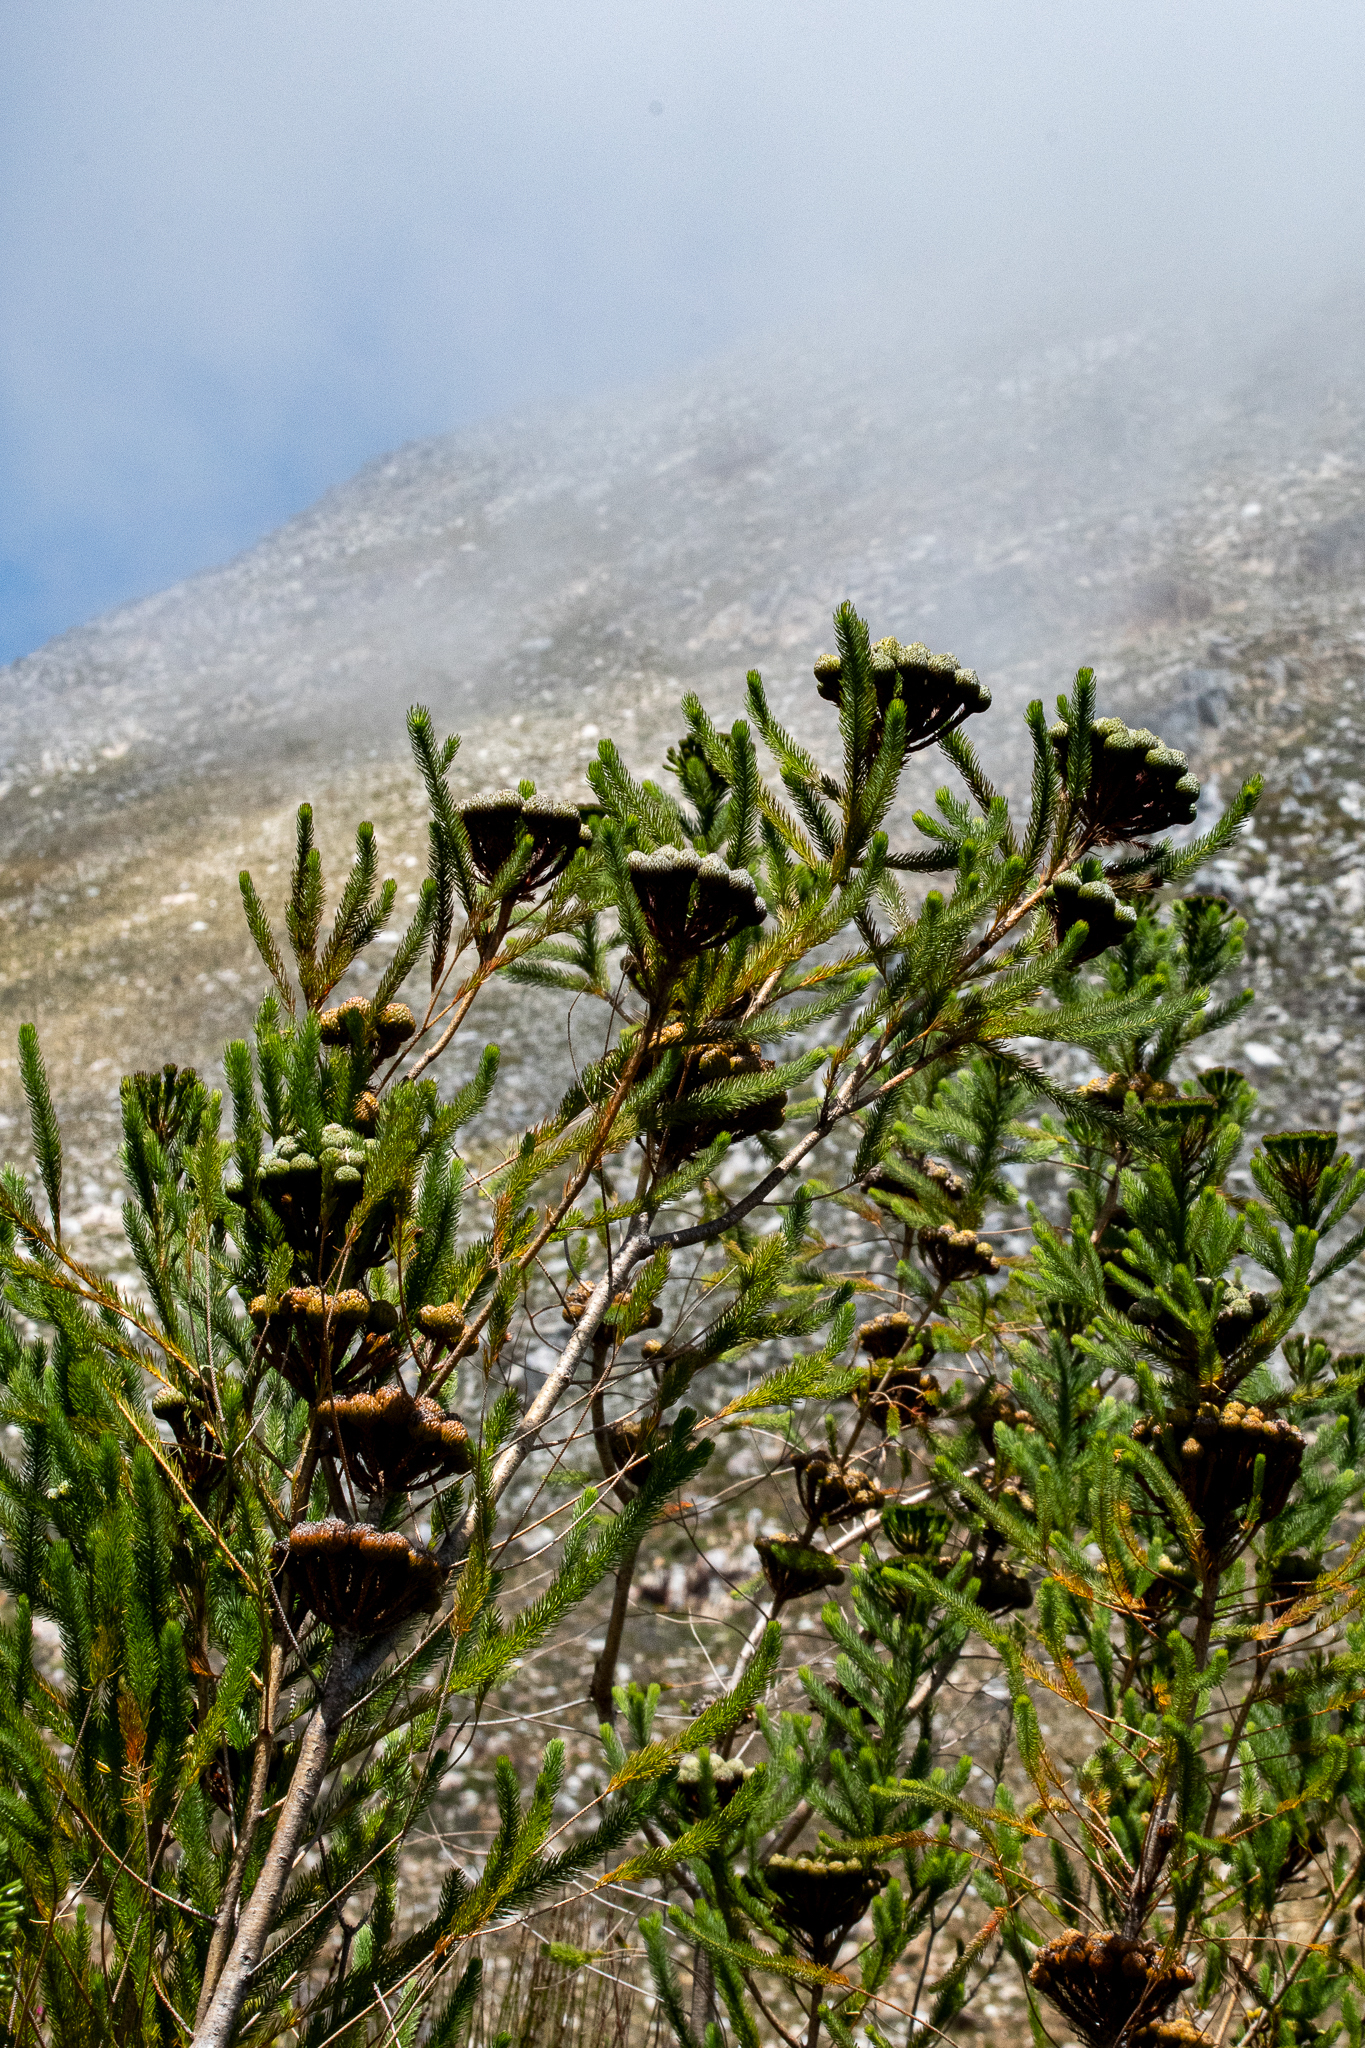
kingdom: Plantae
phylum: Tracheophyta
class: Magnoliopsida
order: Bruniales
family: Bruniaceae
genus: Berzelia
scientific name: Berzelia albiflora
